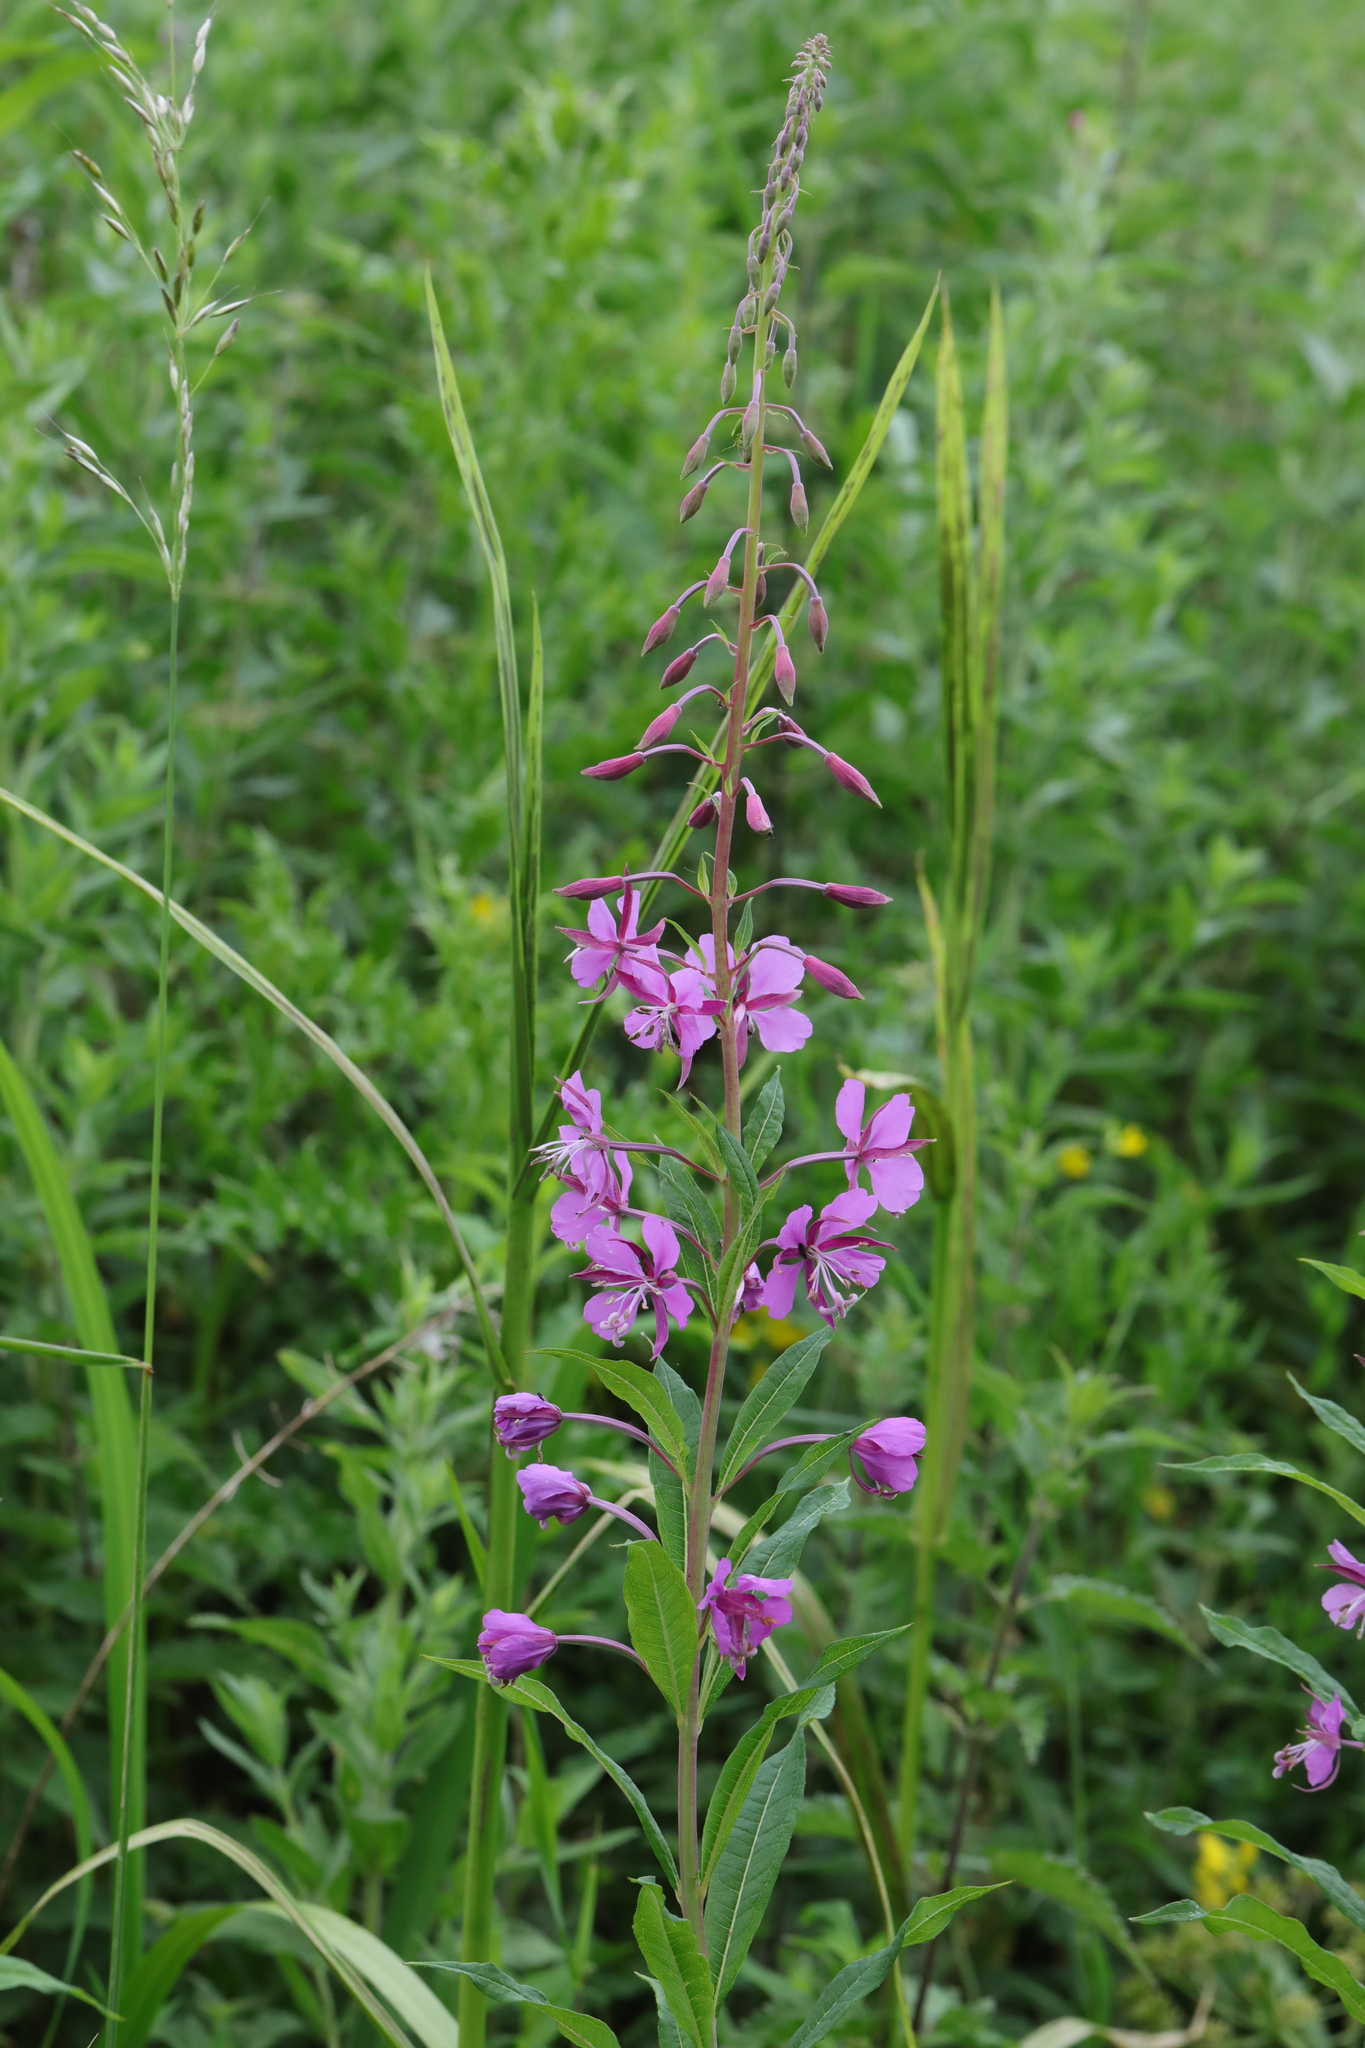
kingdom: Plantae
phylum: Tracheophyta
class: Magnoliopsida
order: Myrtales
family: Onagraceae
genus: Chamaenerion
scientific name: Chamaenerion angustifolium
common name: Fireweed
